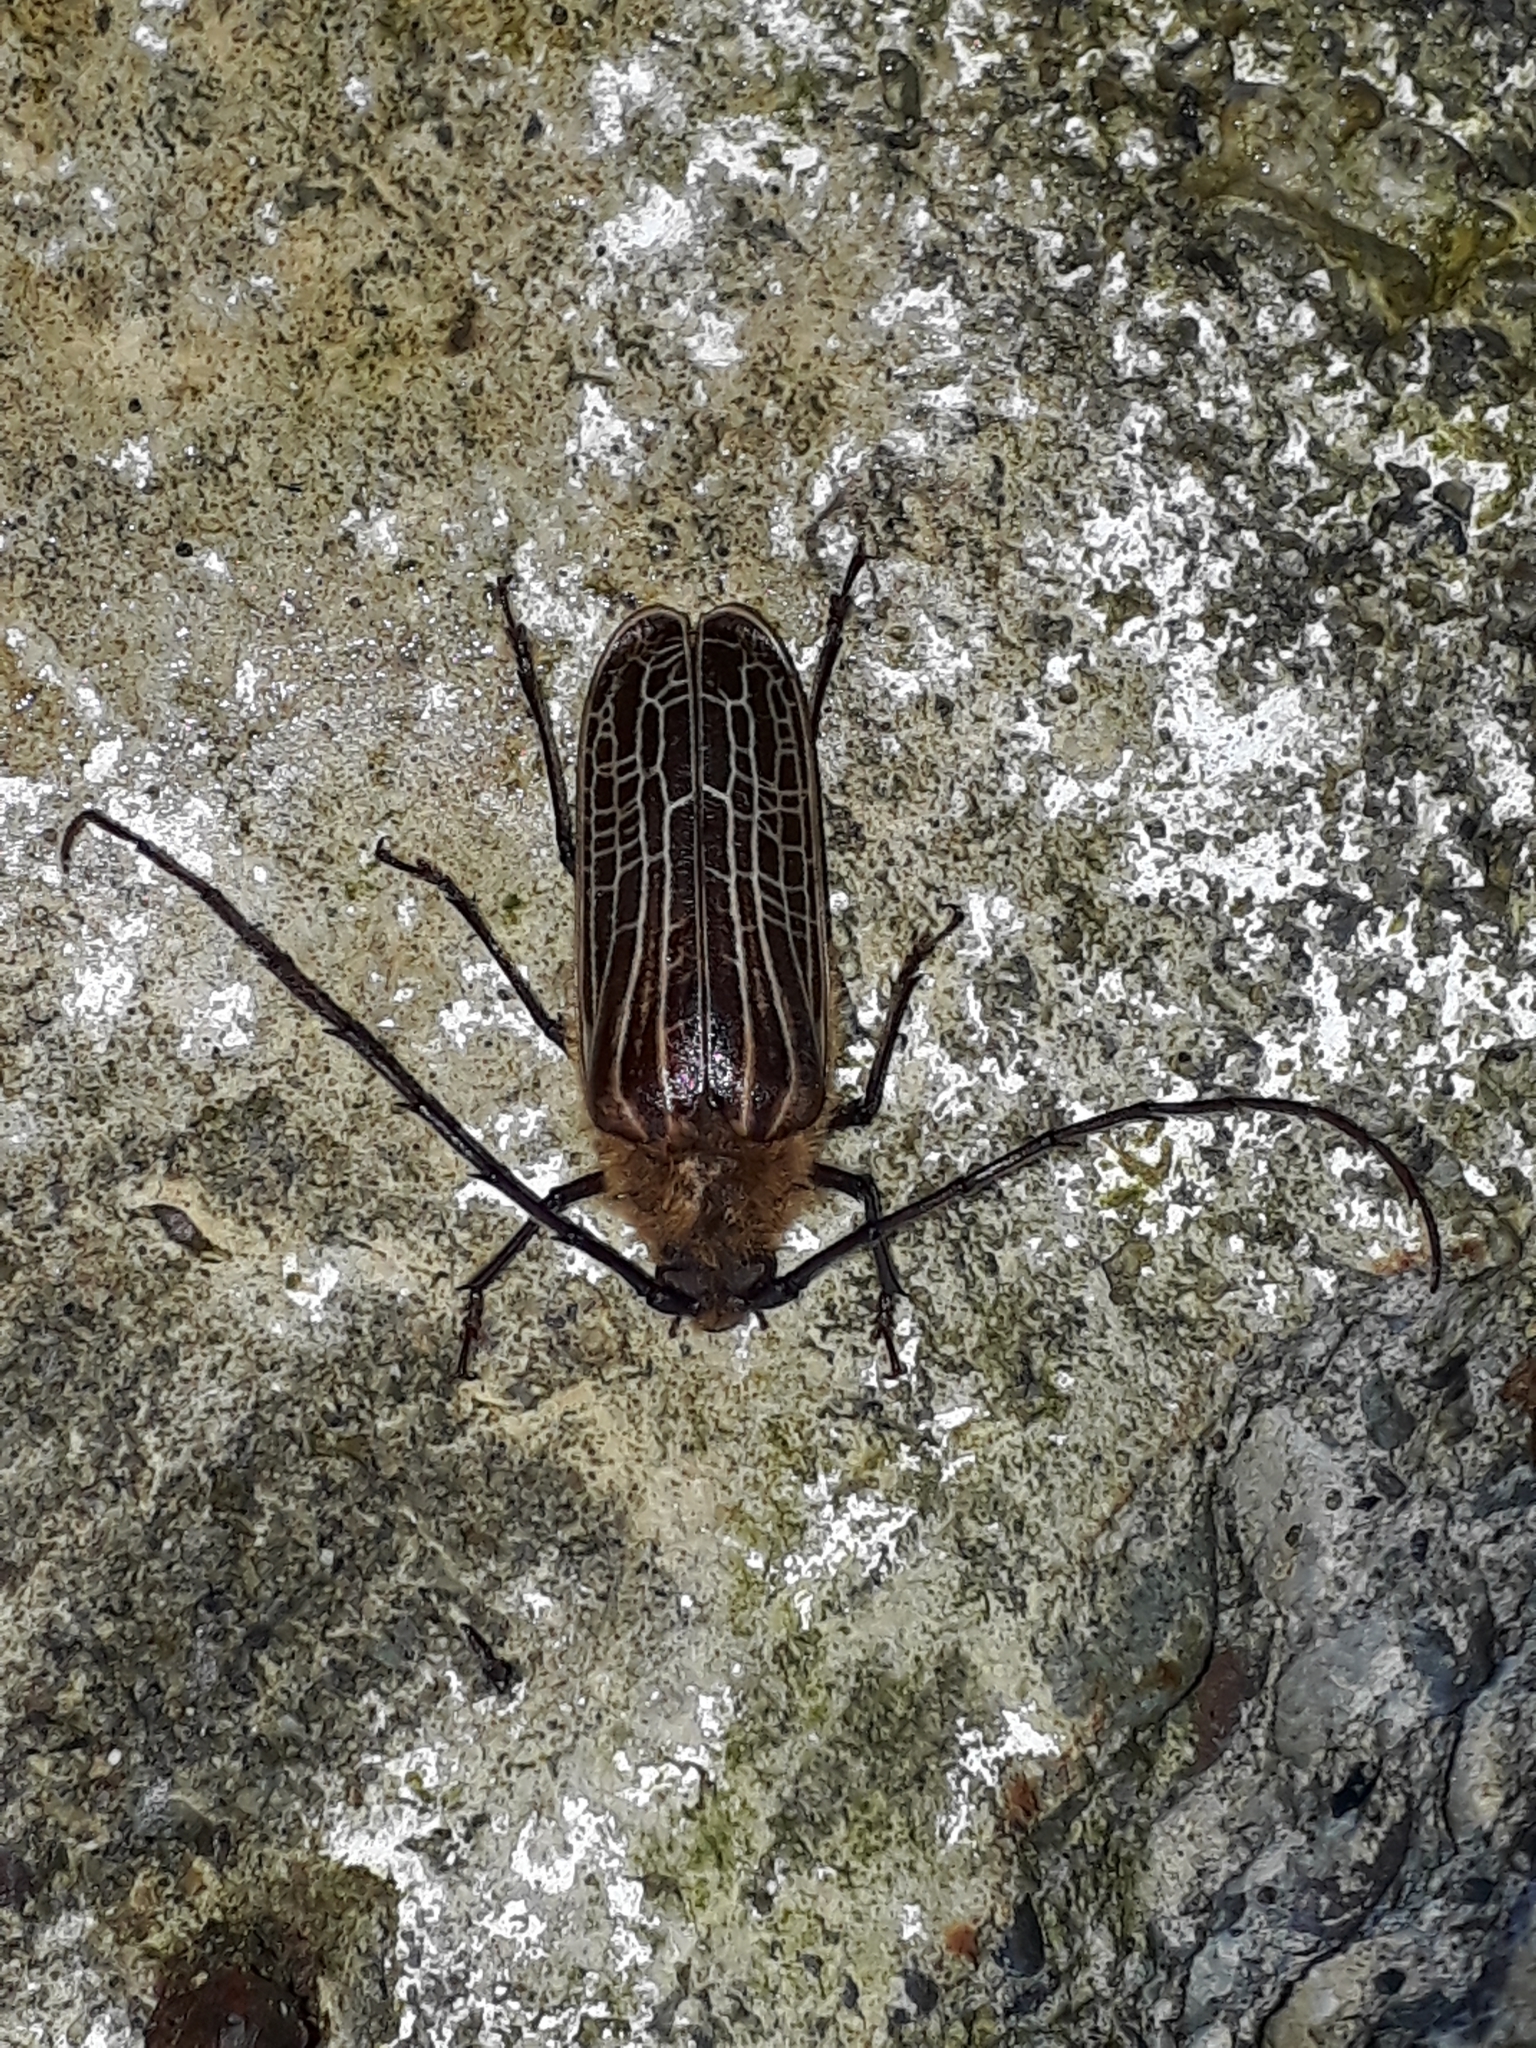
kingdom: Animalia
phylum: Arthropoda
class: Insecta
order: Coleoptera
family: Cerambycidae
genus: Prionoplus
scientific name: Prionoplus reticularis
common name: Huhu beetle
